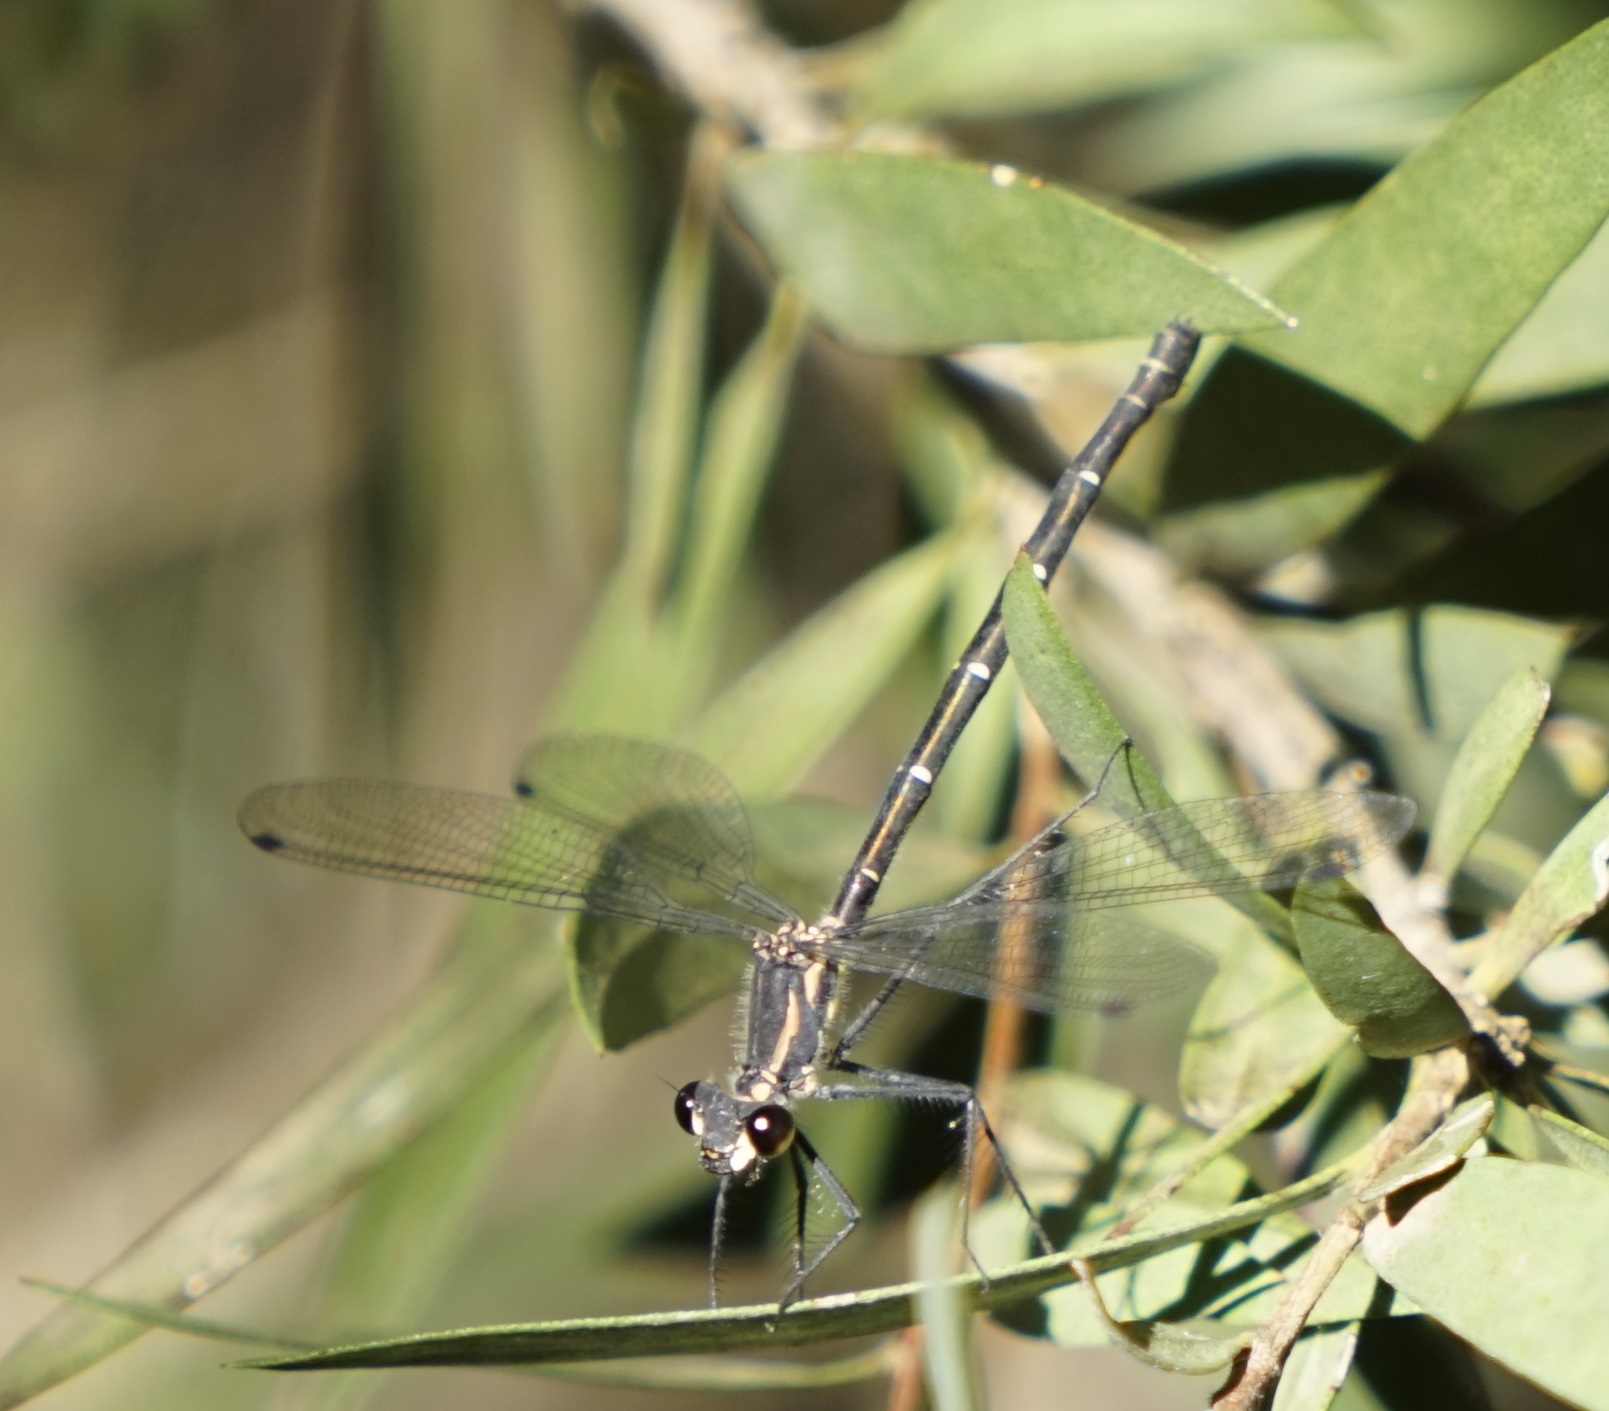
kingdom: Animalia
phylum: Arthropoda
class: Insecta
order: Odonata
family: Argiolestidae
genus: Austroargiolestes
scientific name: Austroargiolestes isabellae
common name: Sydney flatwing
